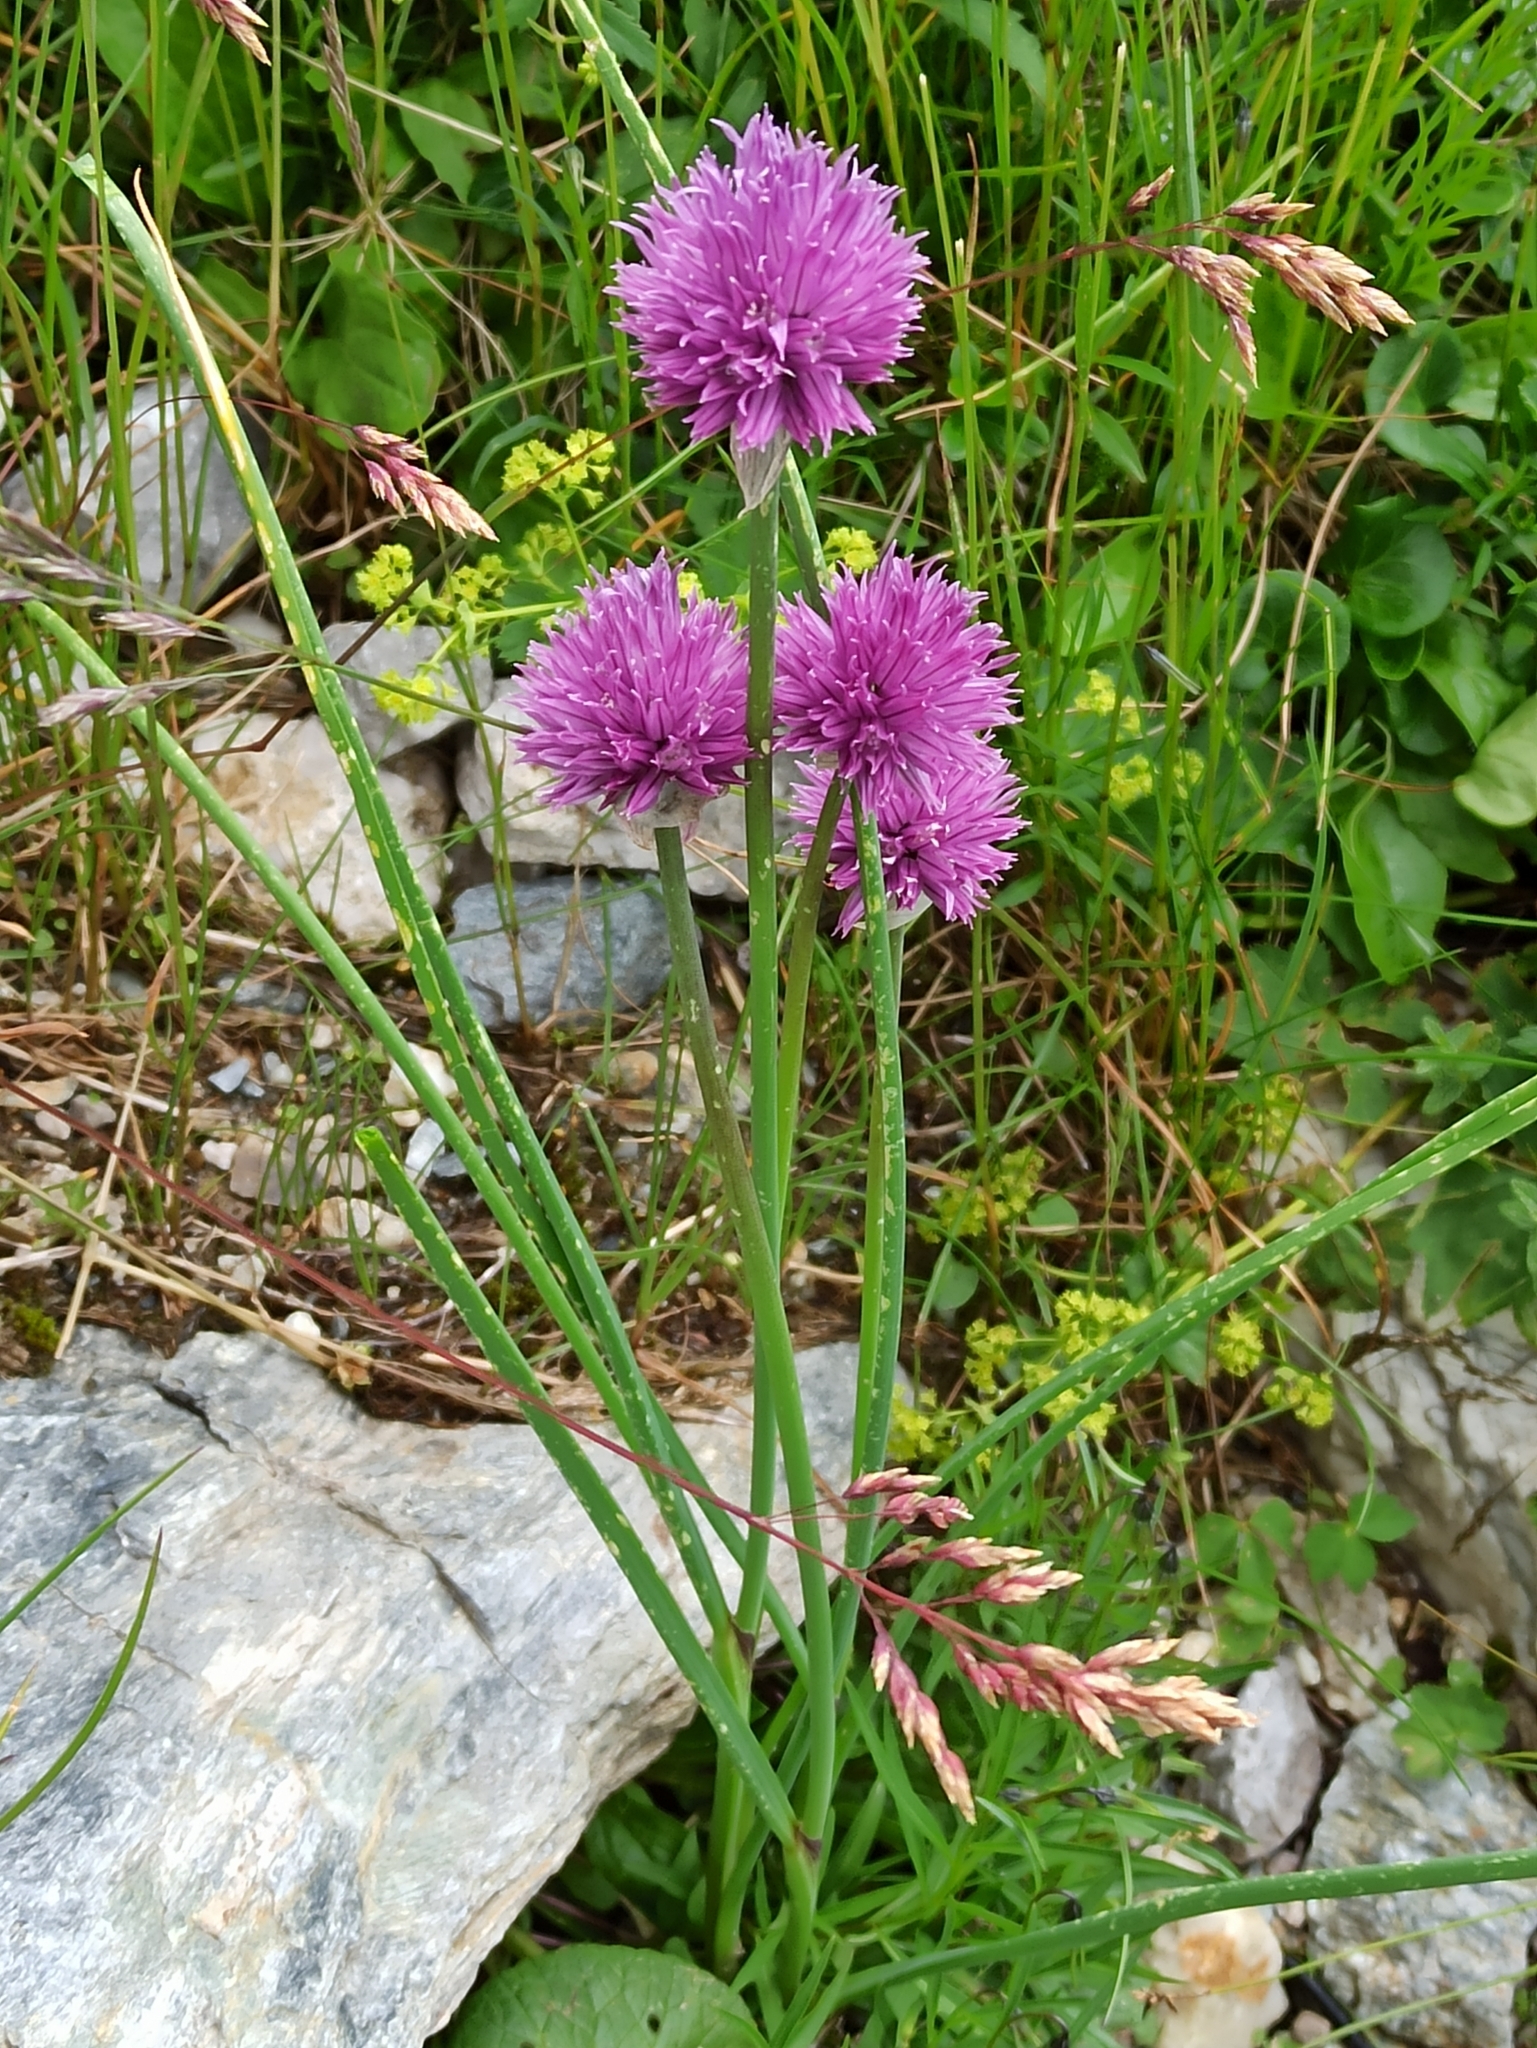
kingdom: Plantae
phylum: Tracheophyta
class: Liliopsida
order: Asparagales
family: Amaryllidaceae
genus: Allium
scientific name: Allium schoenoprasum
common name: Chives
